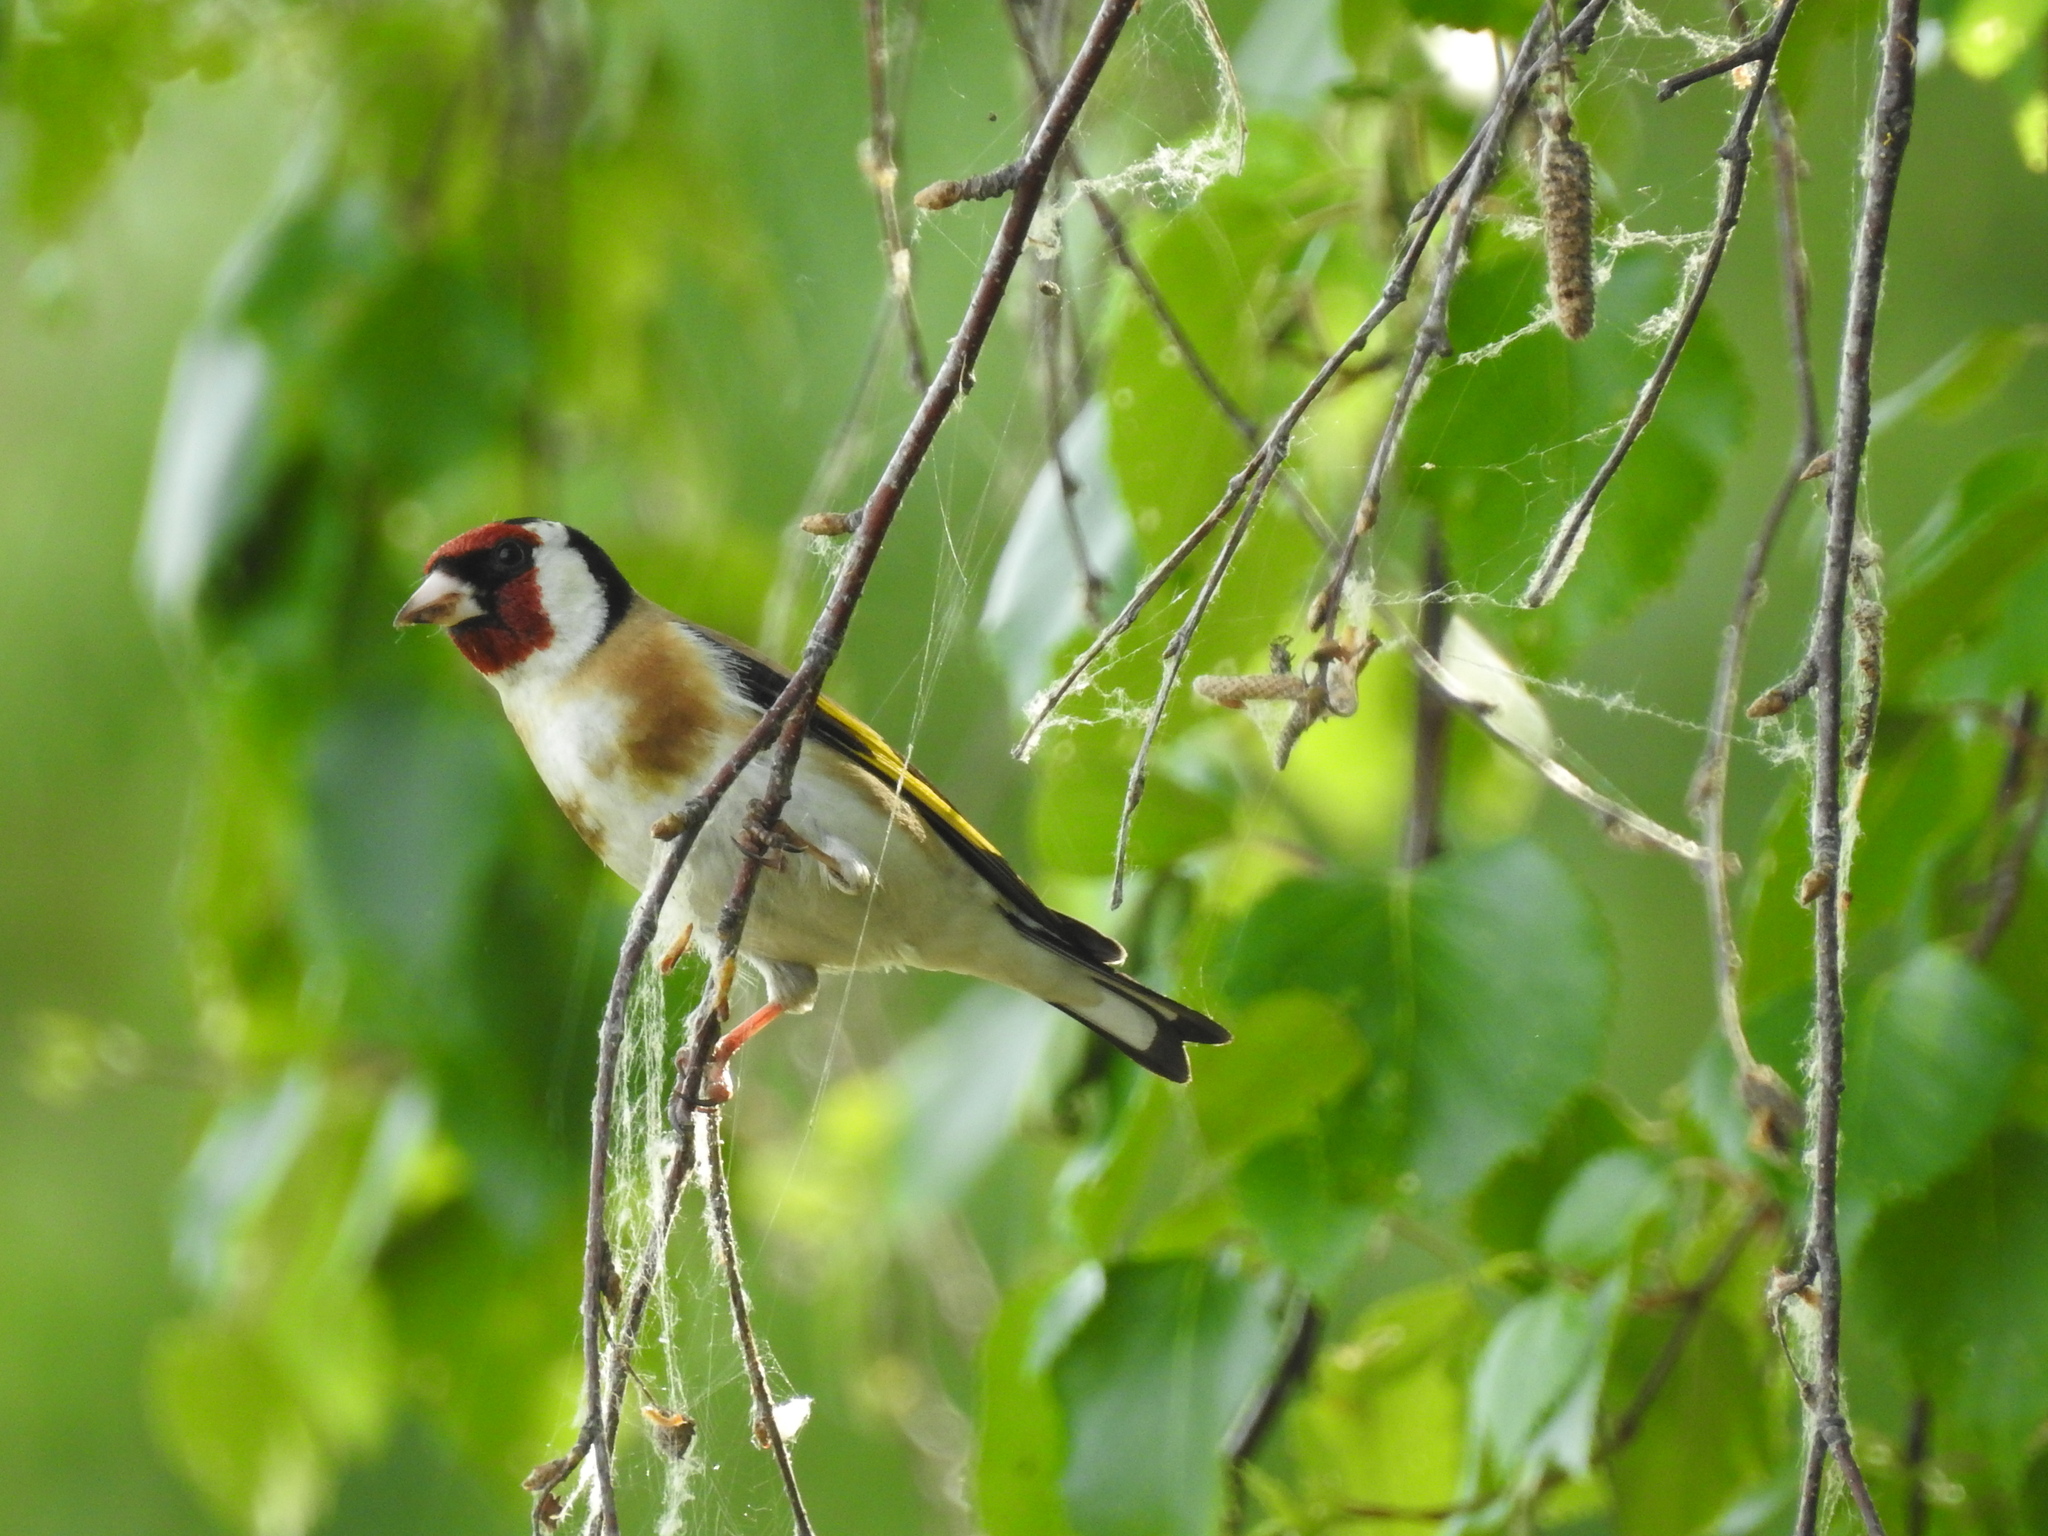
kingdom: Animalia
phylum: Chordata
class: Aves
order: Passeriformes
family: Fringillidae
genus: Carduelis
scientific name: Carduelis carduelis
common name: European goldfinch
